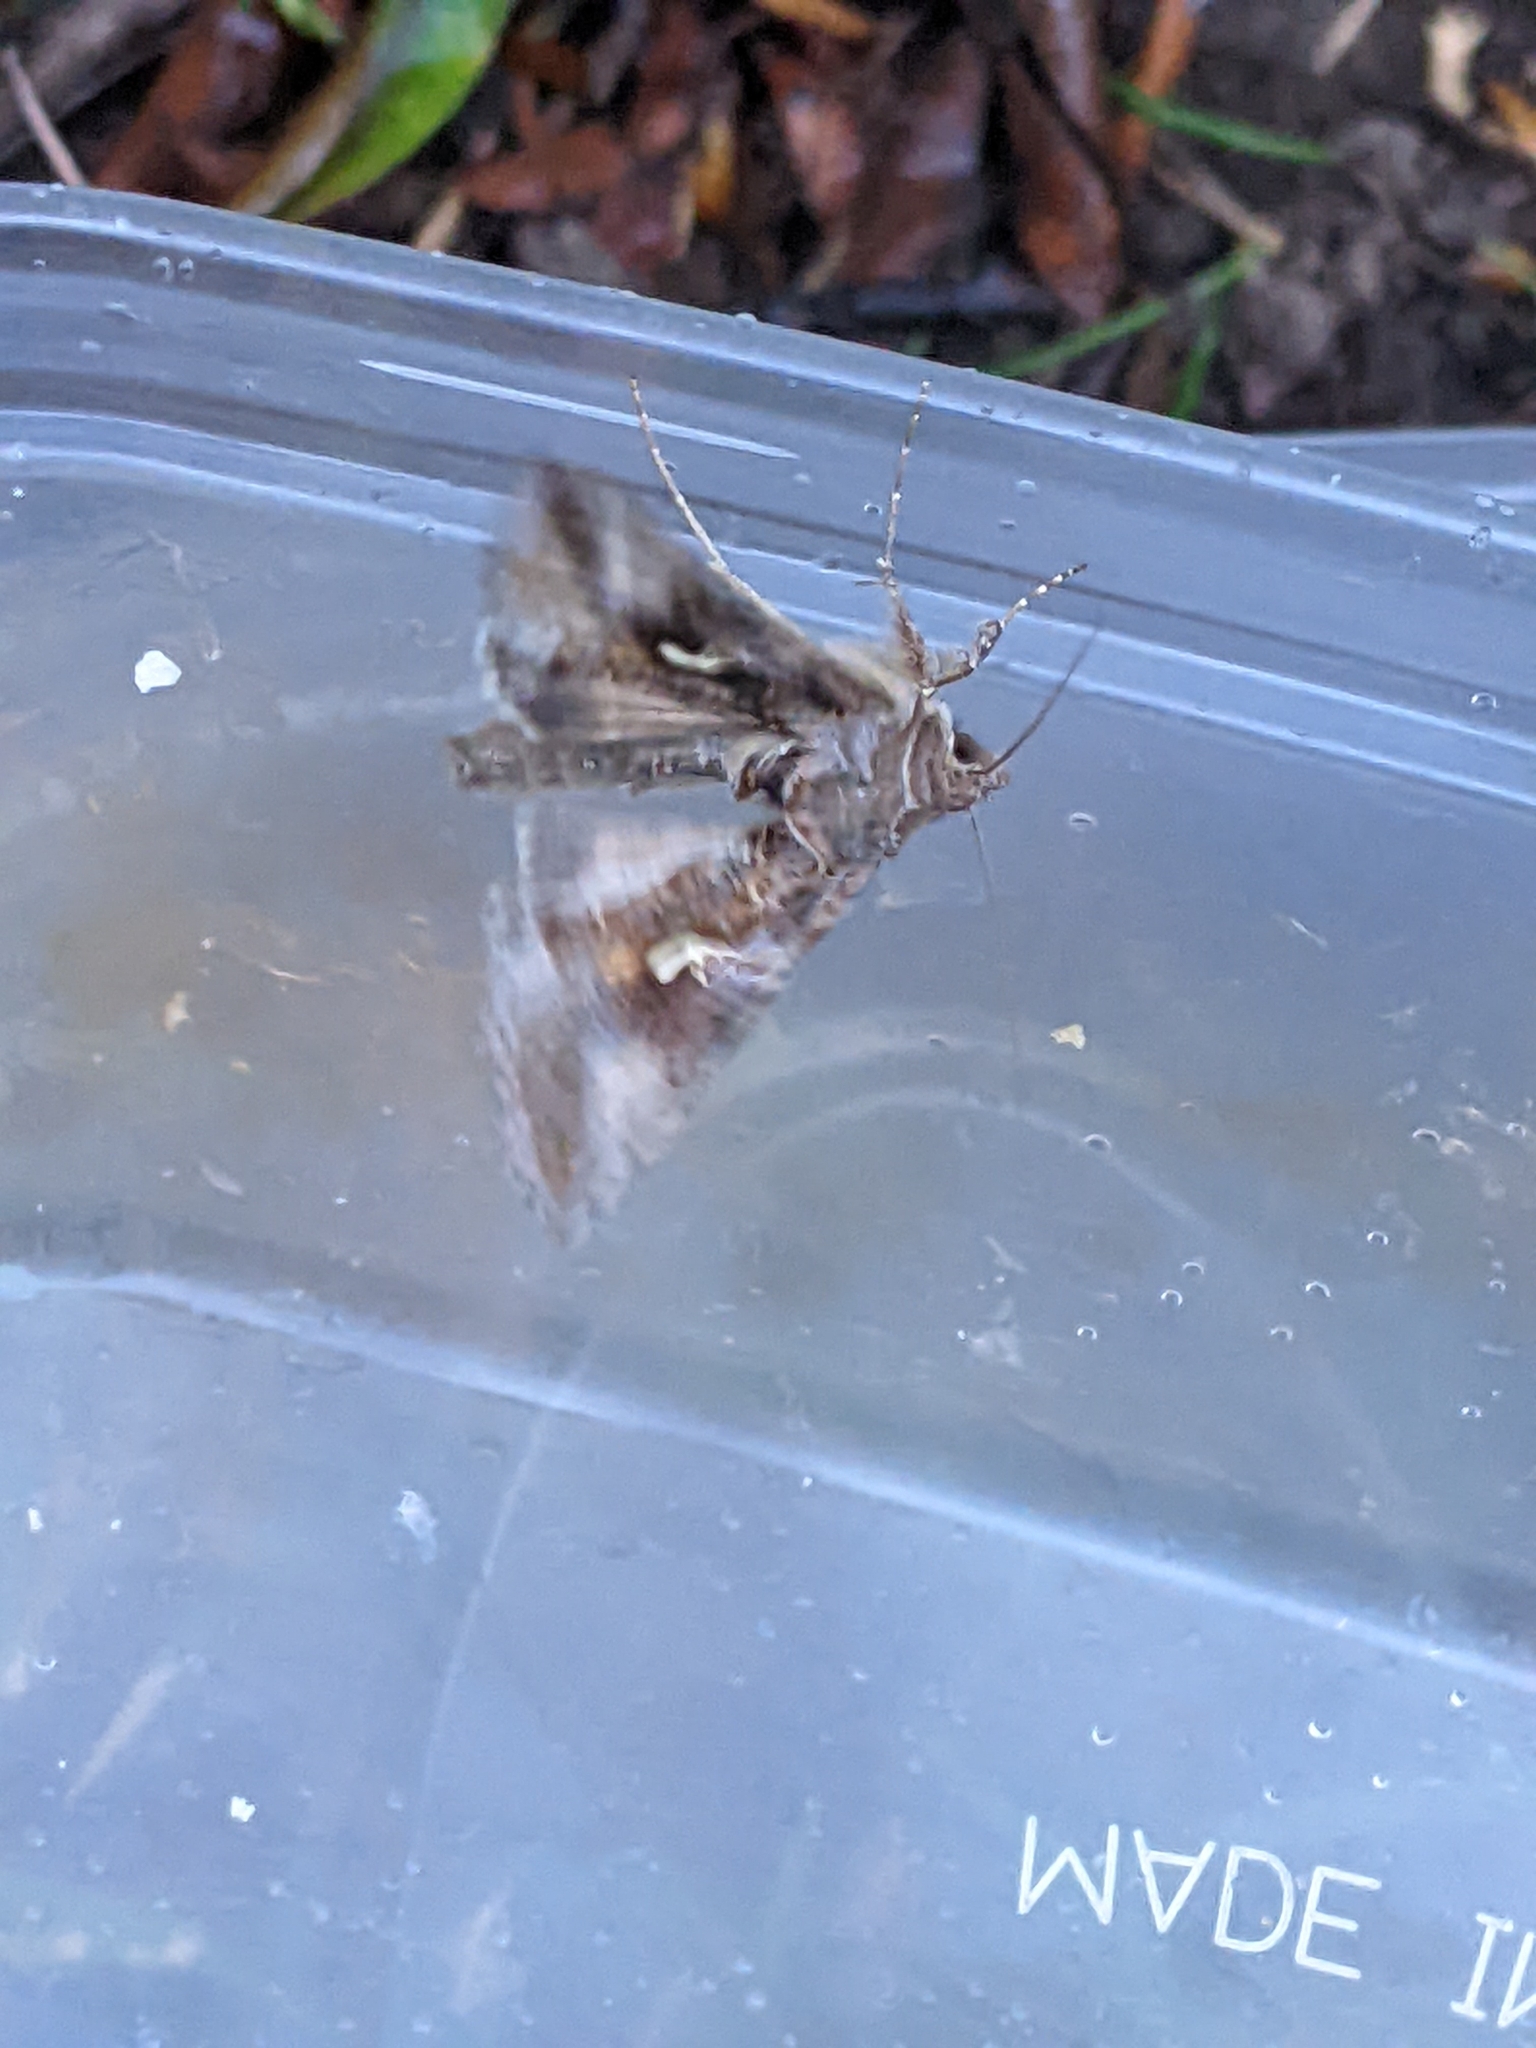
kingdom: Animalia
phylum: Arthropoda
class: Insecta
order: Lepidoptera
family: Noctuidae
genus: Autographa
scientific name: Autographa gamma
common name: Silver y
